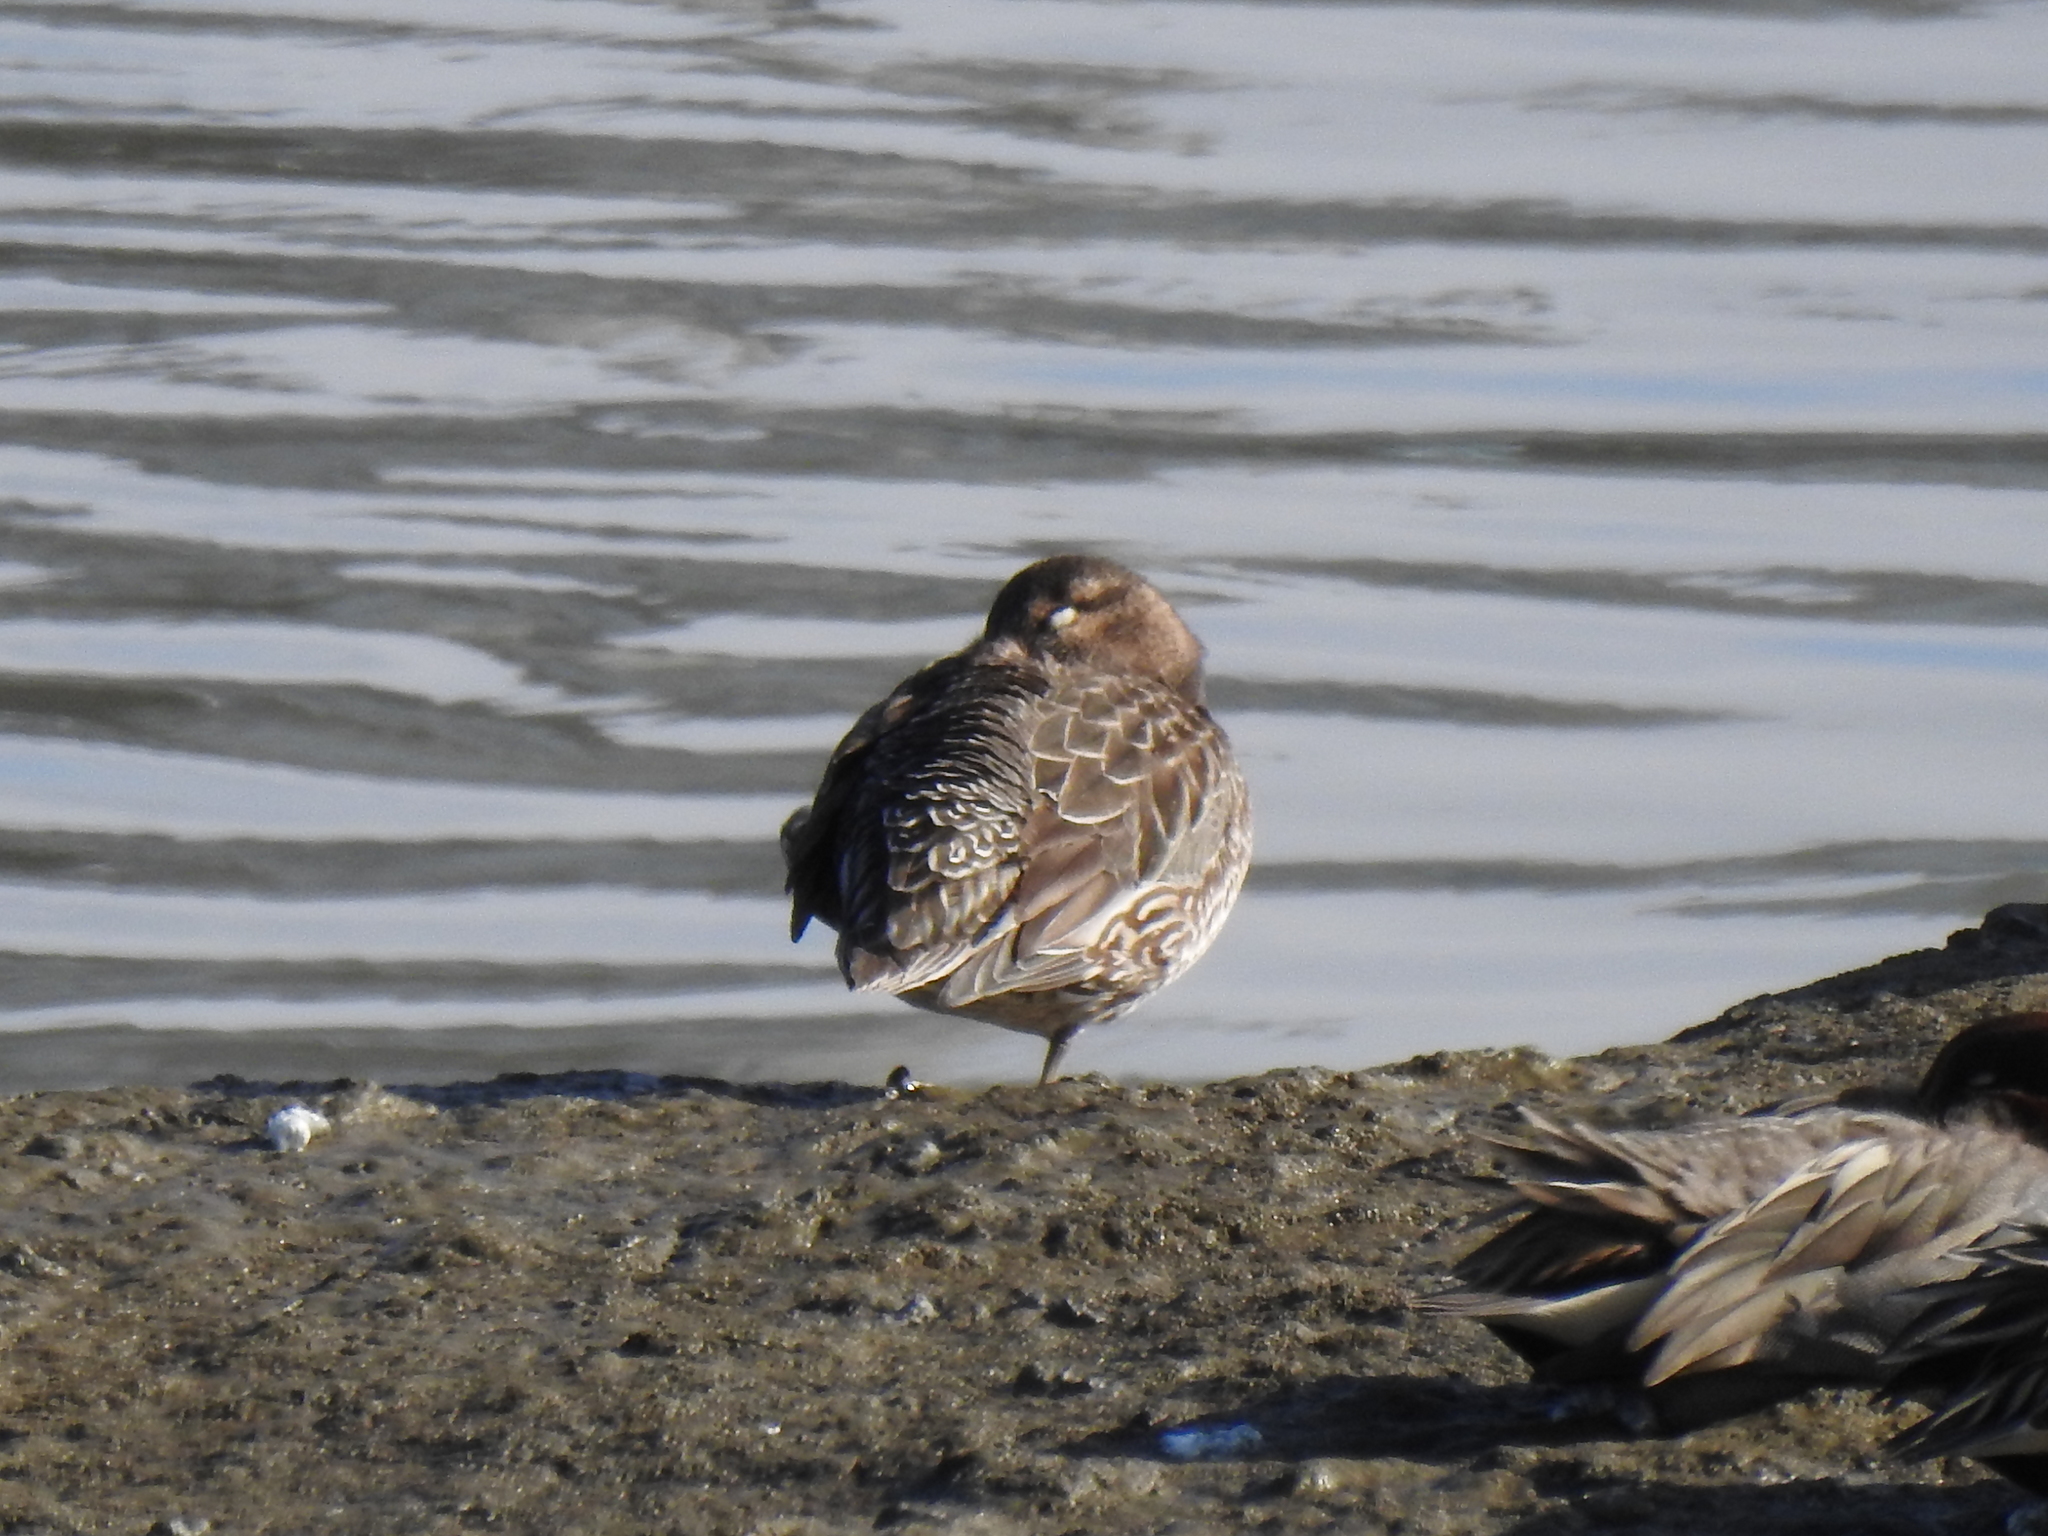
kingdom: Animalia
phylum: Chordata
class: Aves
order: Anseriformes
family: Anatidae
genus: Anas
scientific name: Anas platyrhynchos
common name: Mallard
